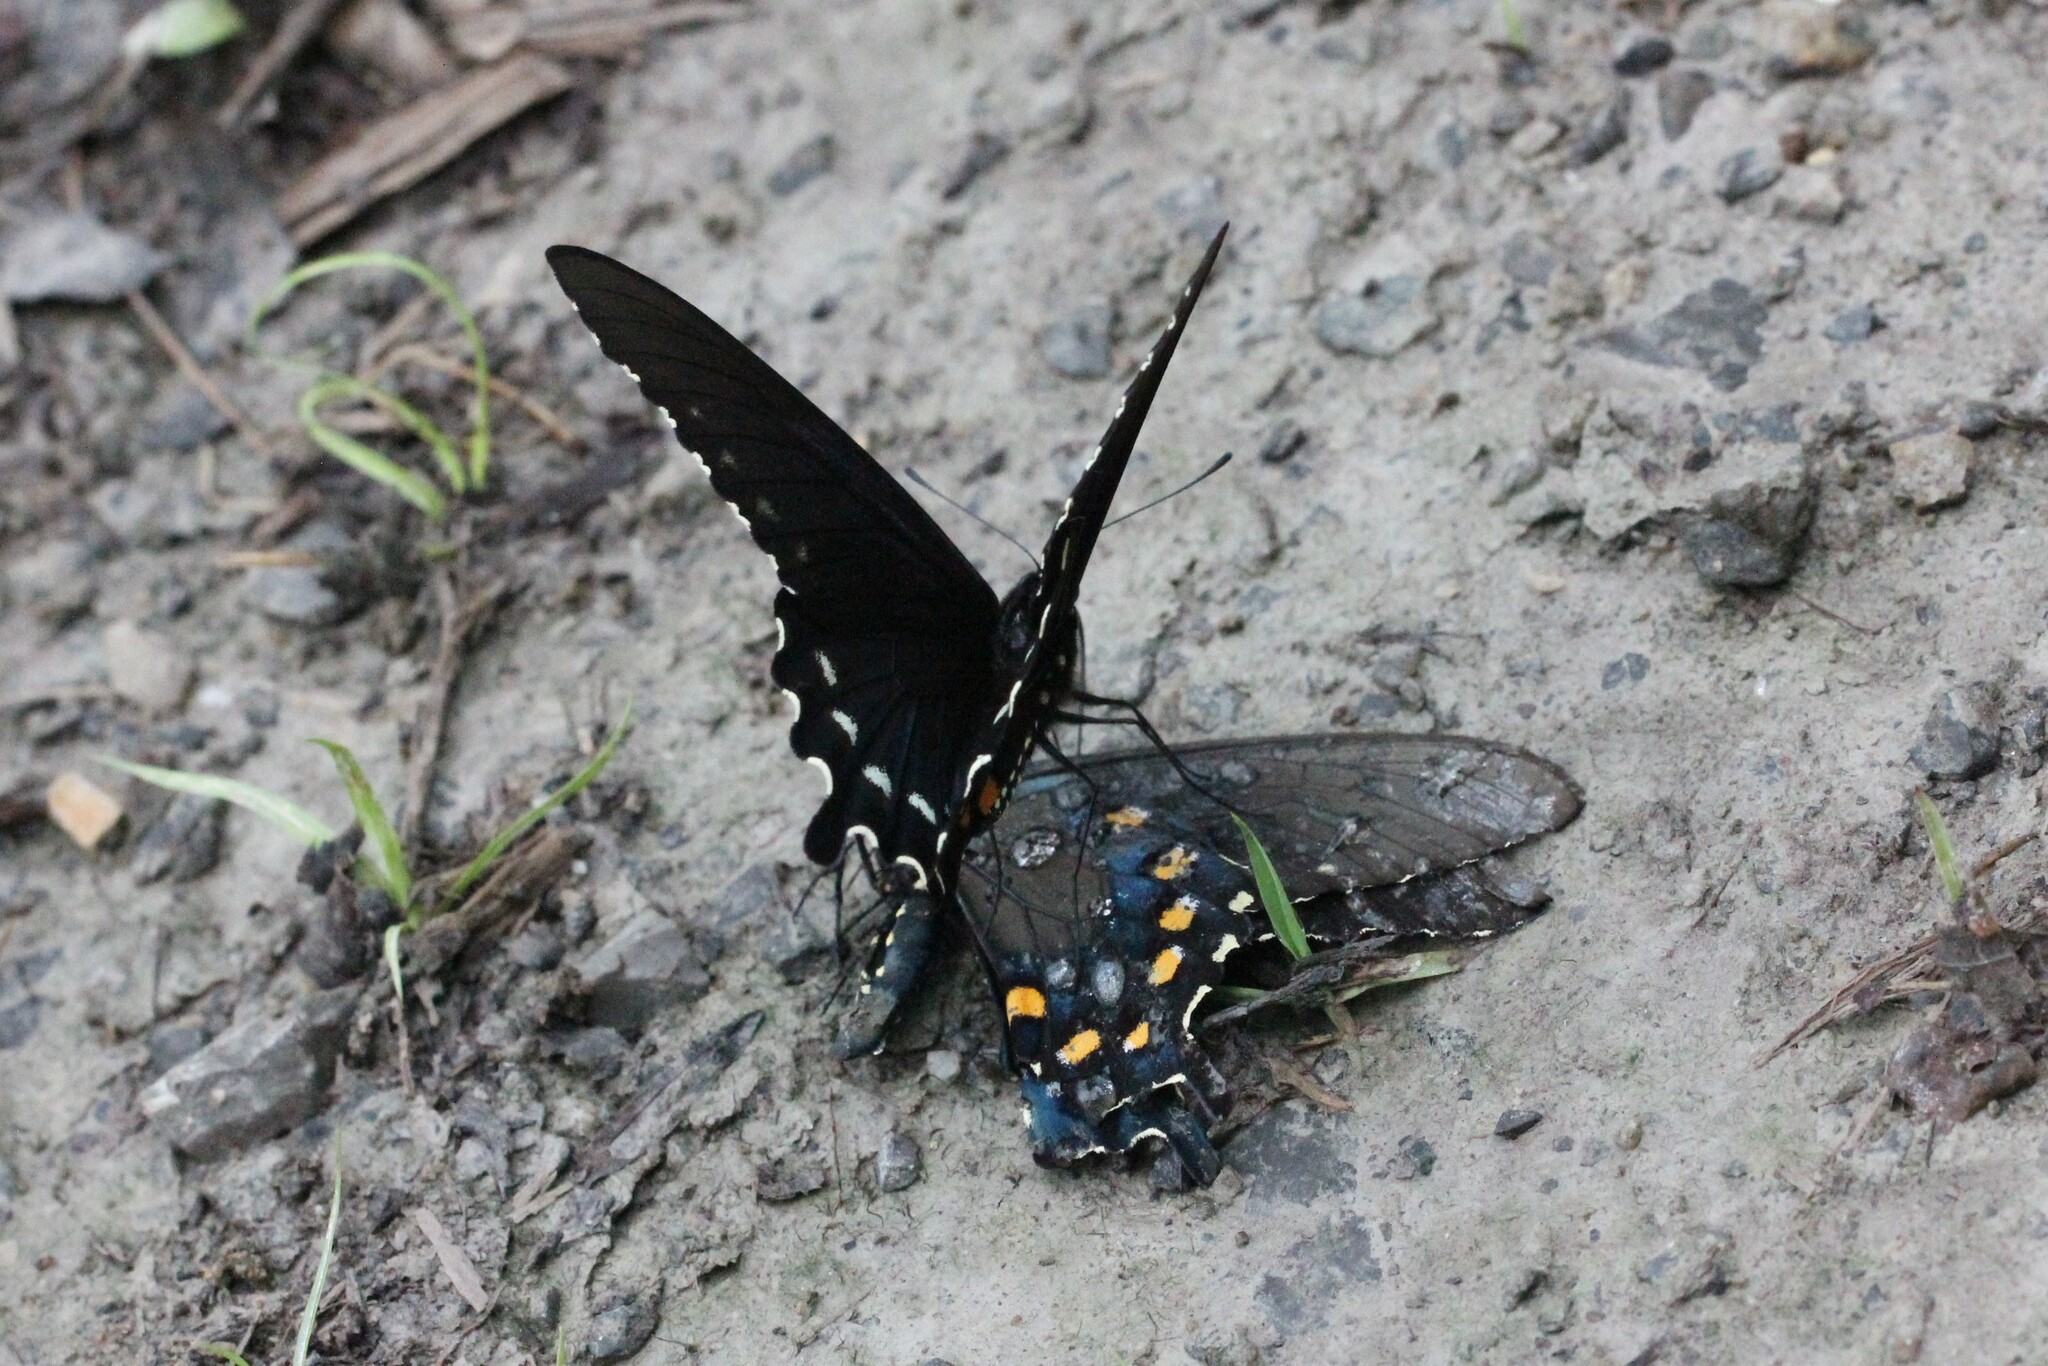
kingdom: Animalia
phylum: Arthropoda
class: Insecta
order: Lepidoptera
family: Papilionidae
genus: Battus
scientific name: Battus philenor
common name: Pipevine swallowtail
